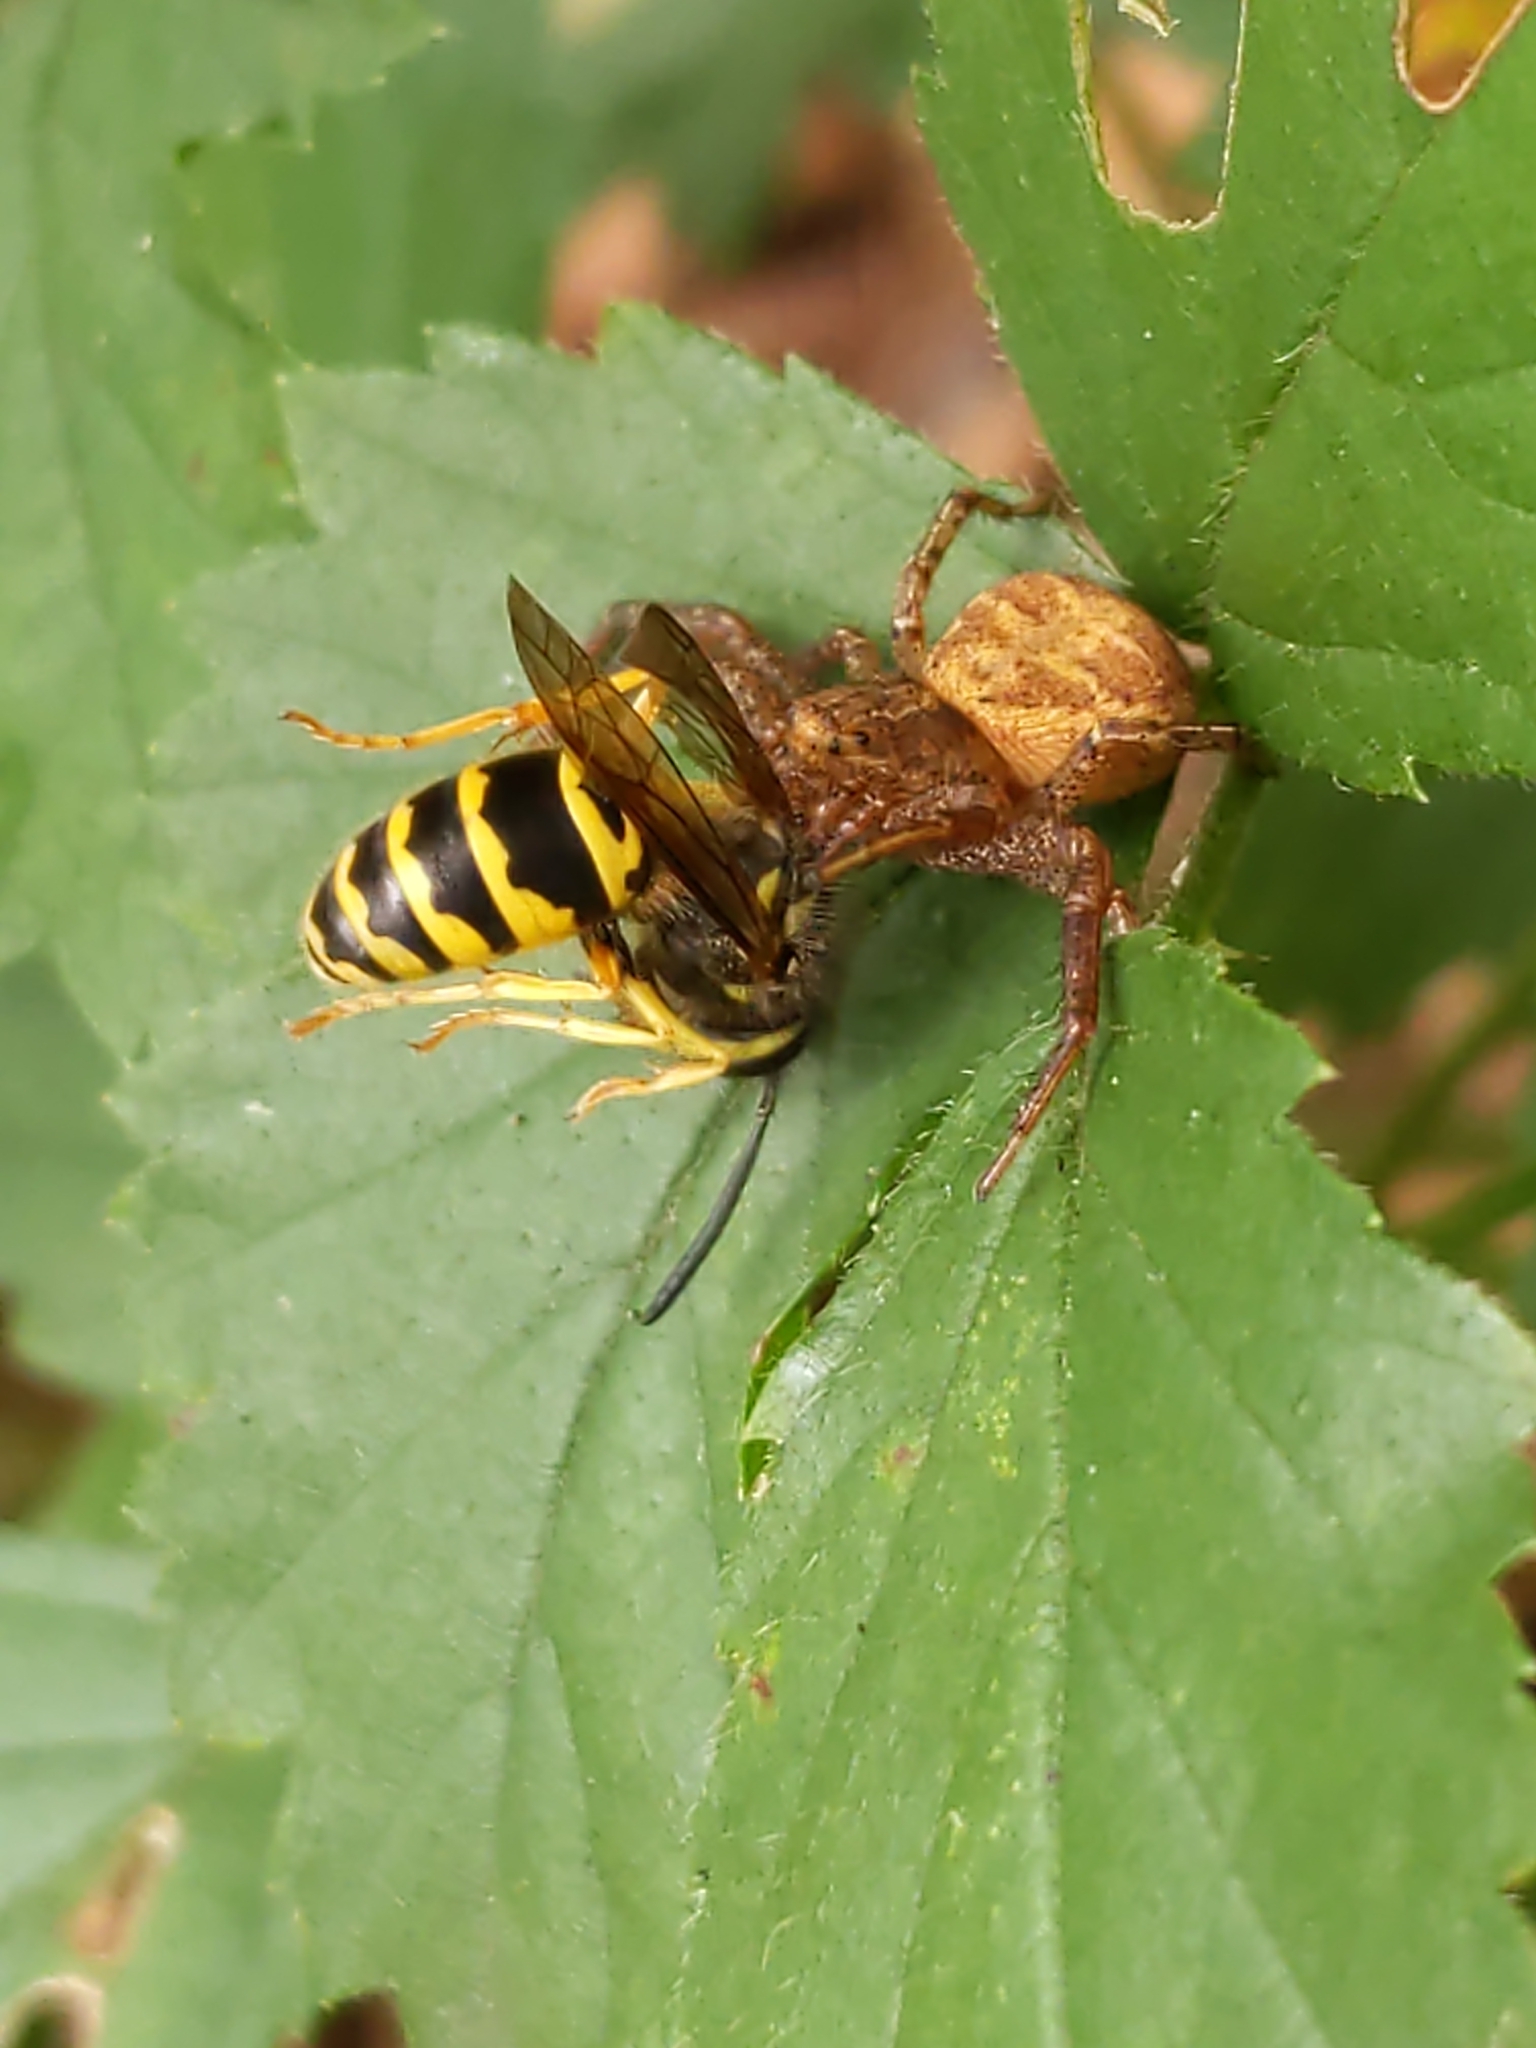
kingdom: Animalia
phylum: Arthropoda
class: Insecta
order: Hymenoptera
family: Vespidae
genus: Vespula
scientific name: Vespula maculifrons
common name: Eastern yellowjacket
